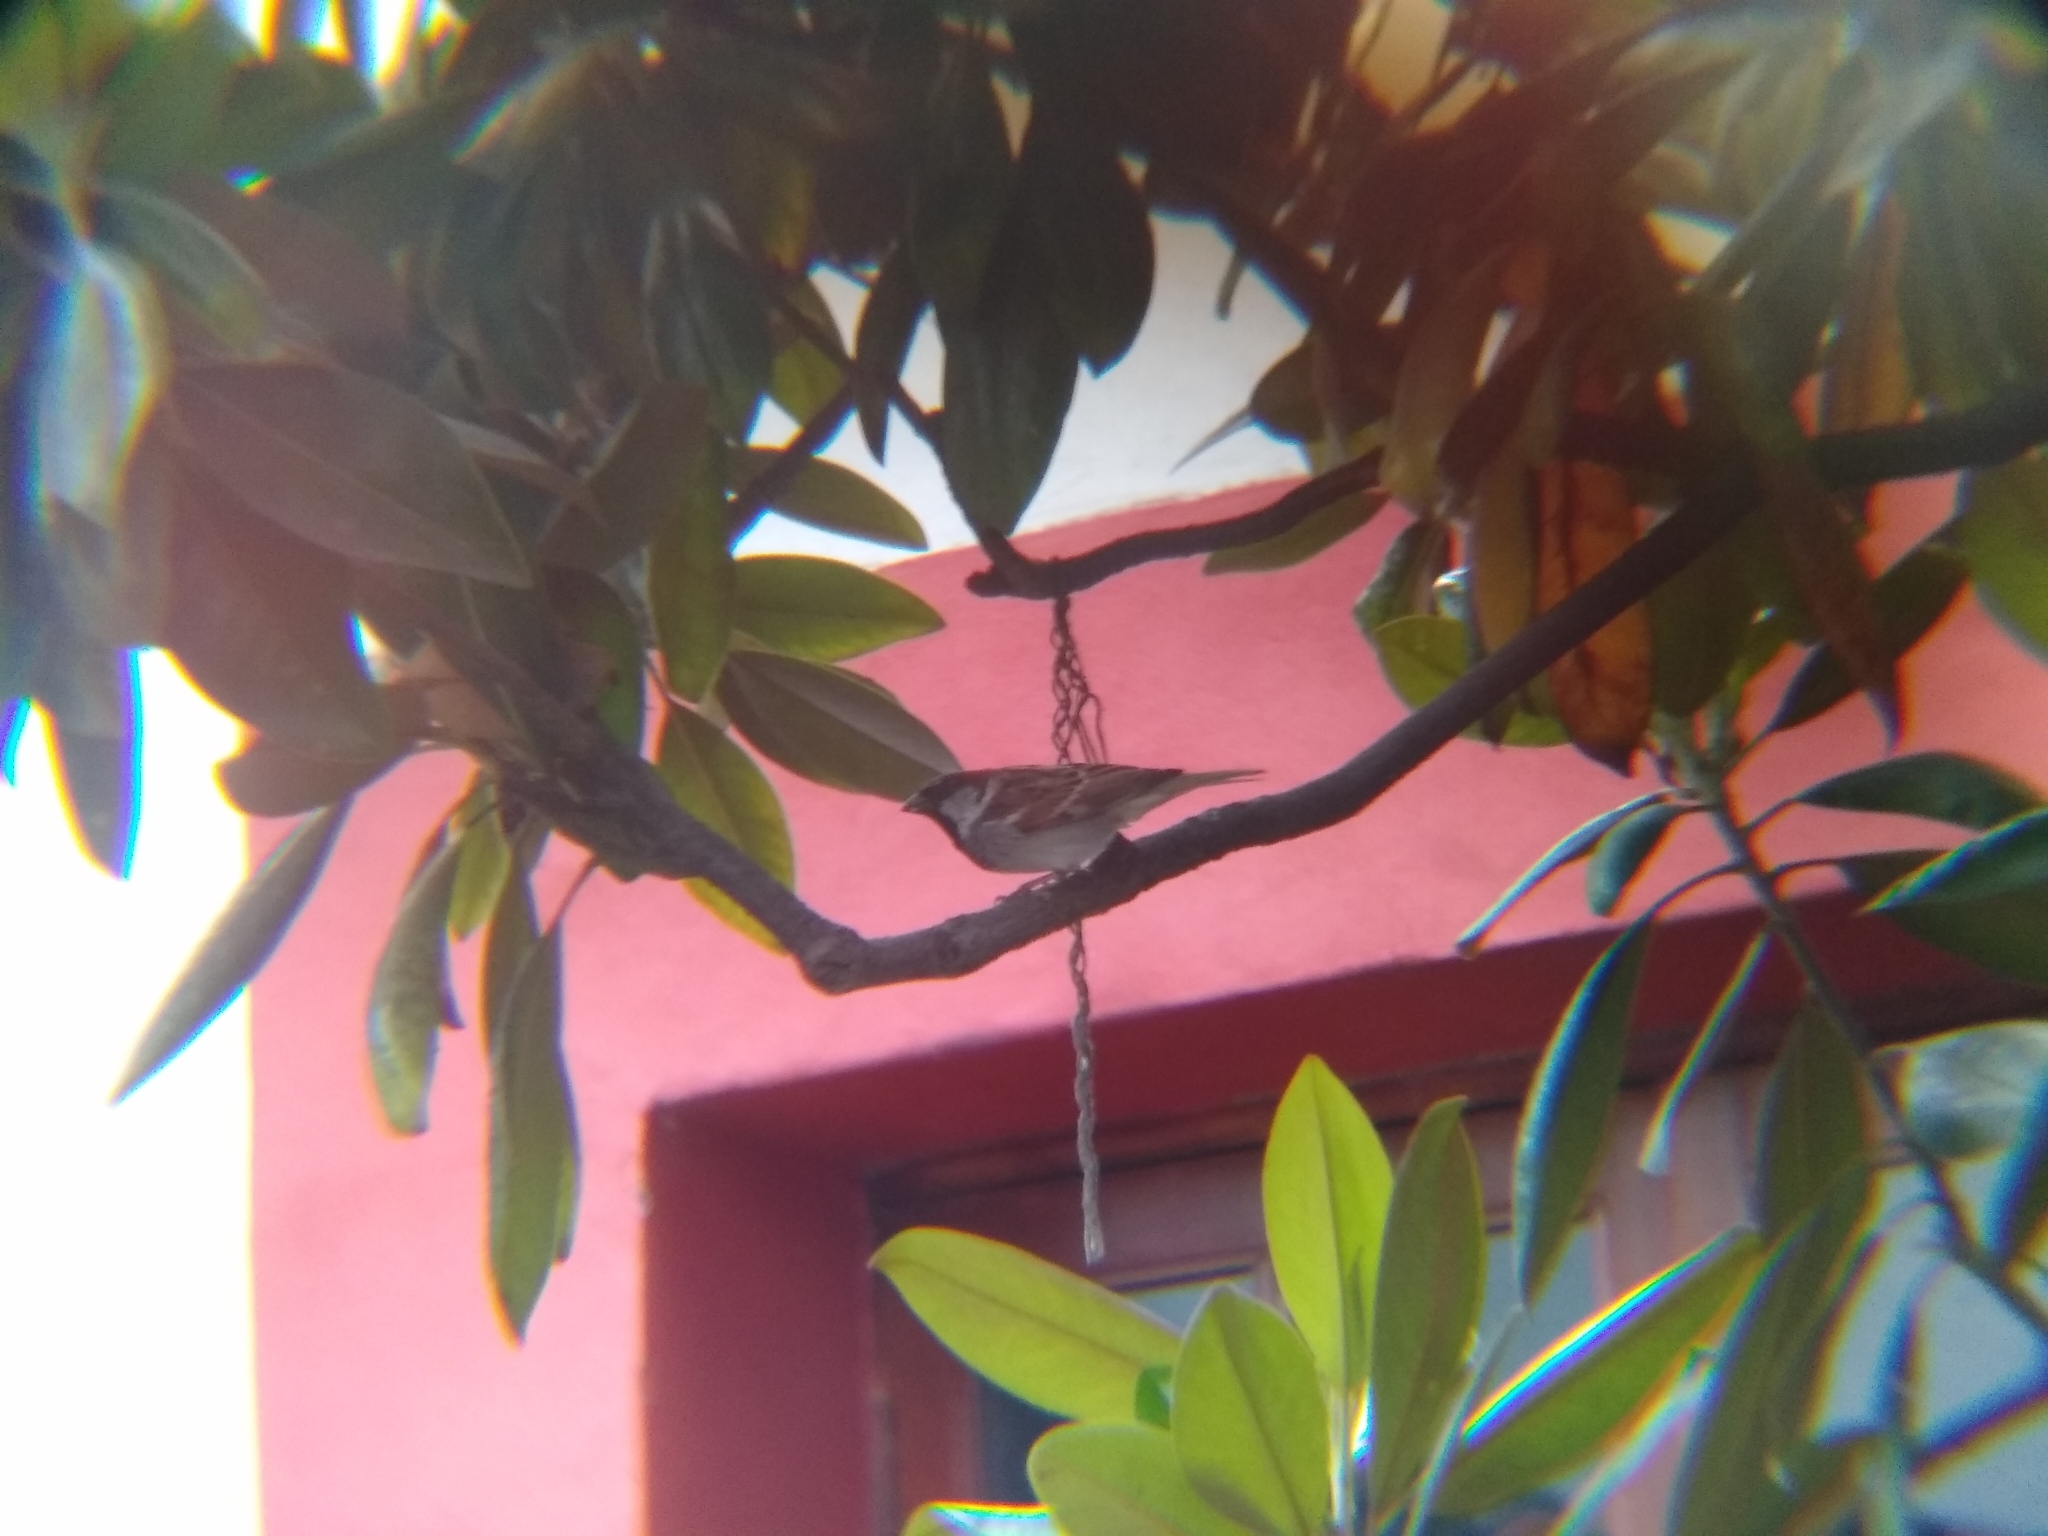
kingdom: Animalia
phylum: Chordata
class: Aves
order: Passeriformes
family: Passeridae
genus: Passer
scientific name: Passer domesticus
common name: House sparrow
